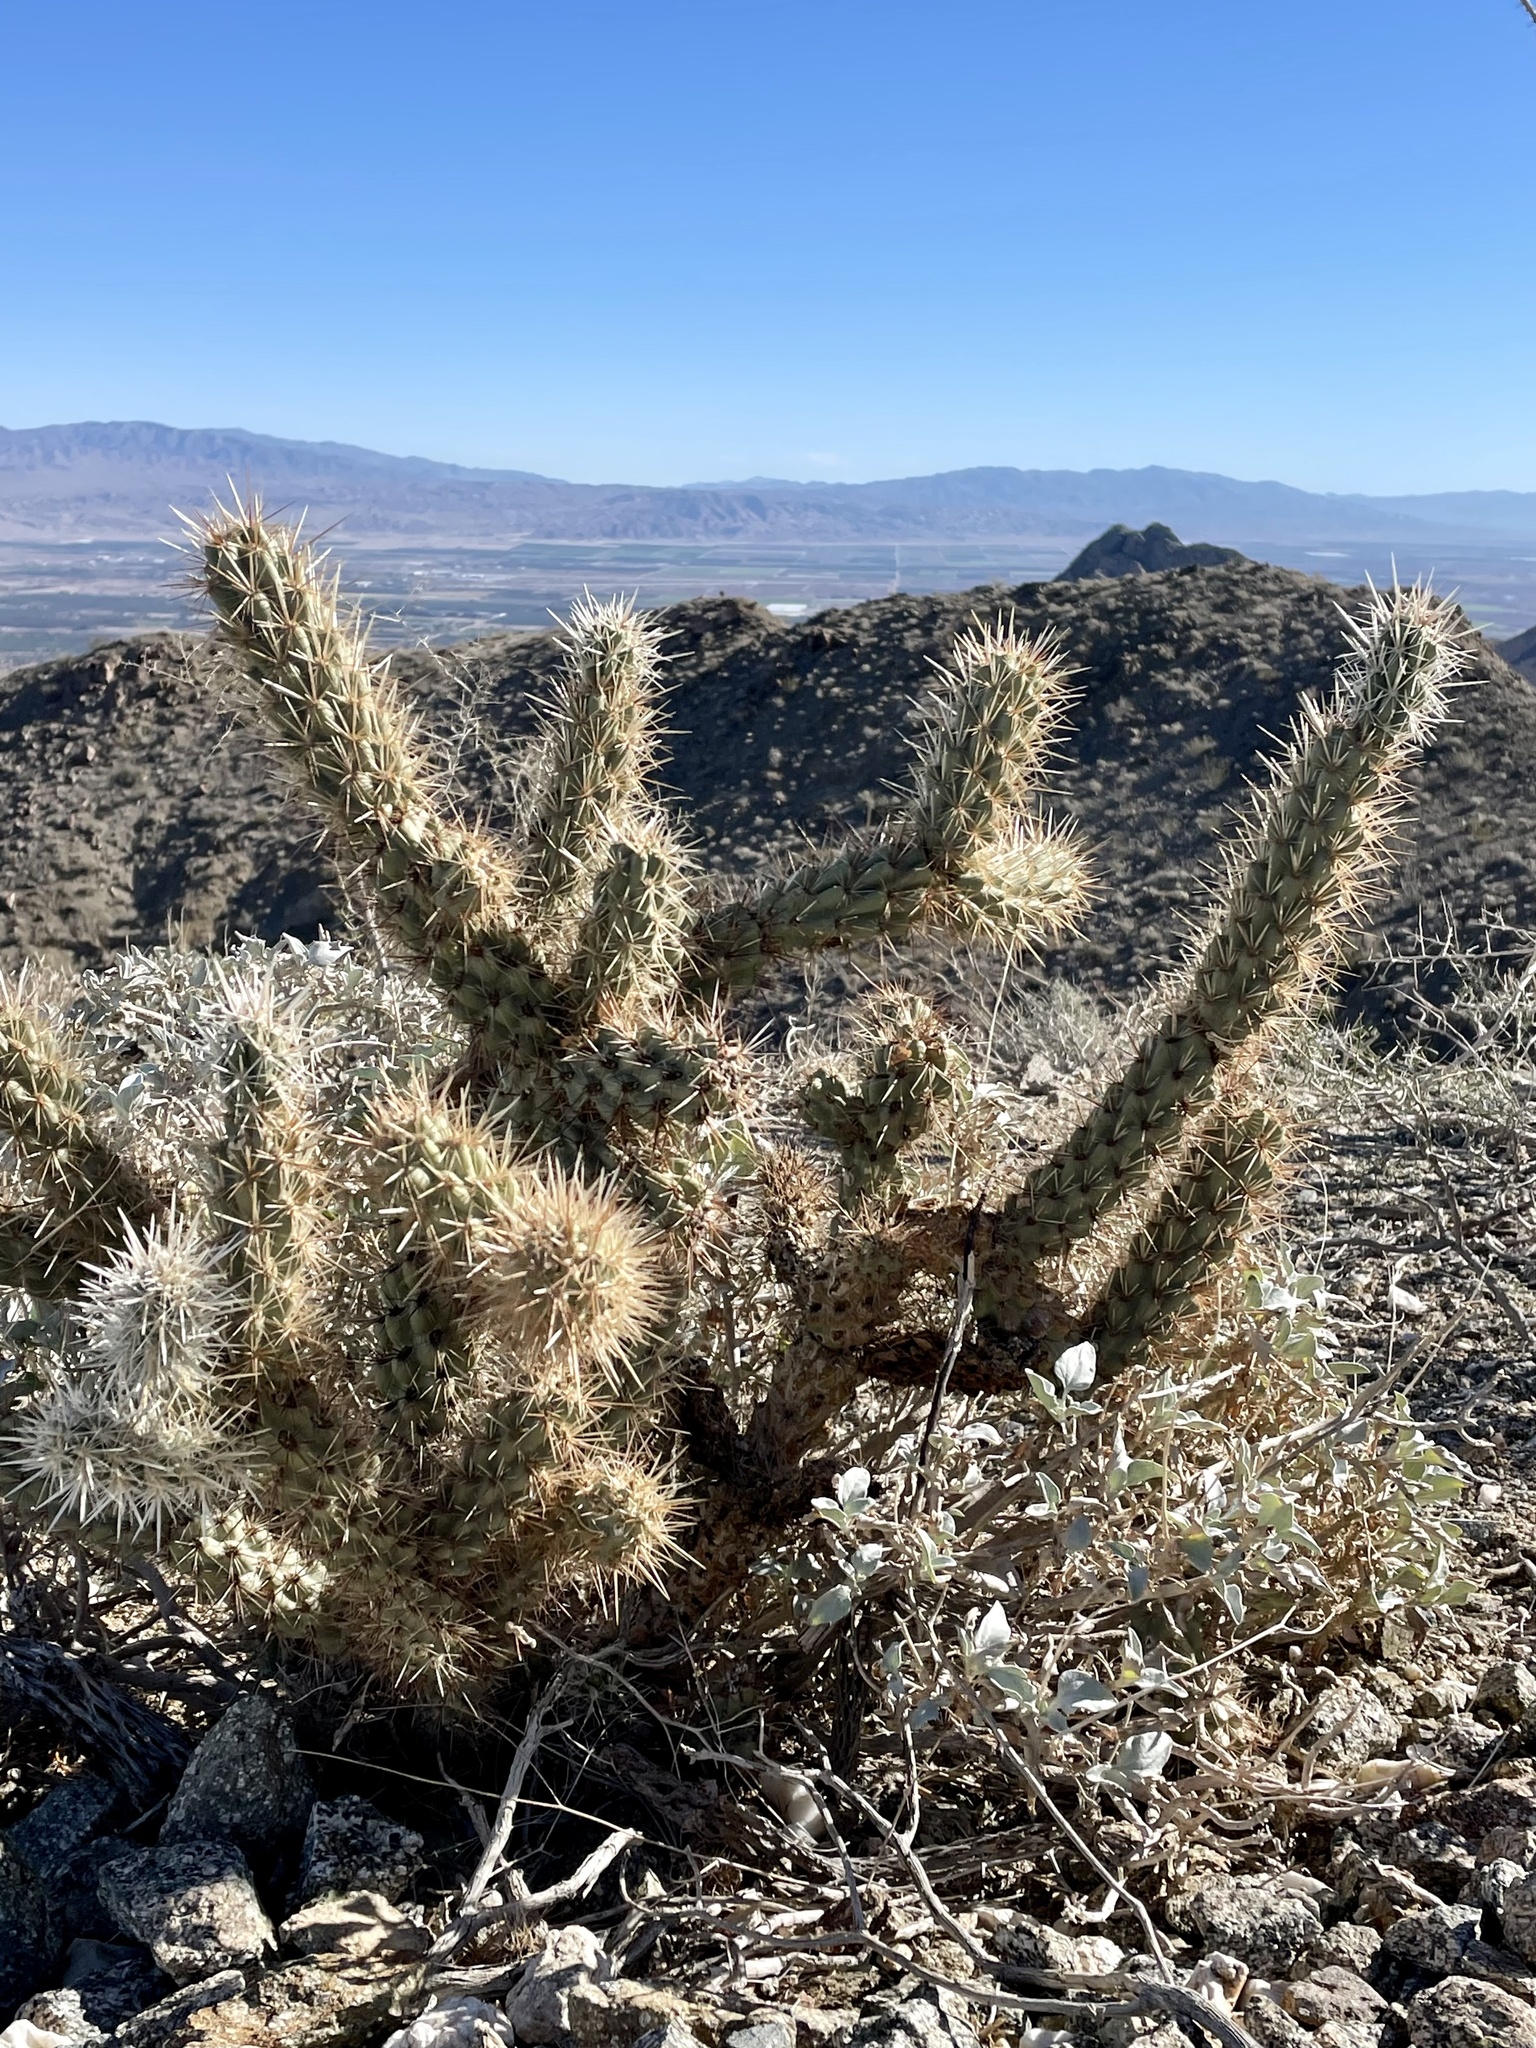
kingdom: Plantae
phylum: Tracheophyta
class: Magnoliopsida
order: Caryophyllales
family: Cactaceae
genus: Cylindropuntia
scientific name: Cylindropuntia ganderi
